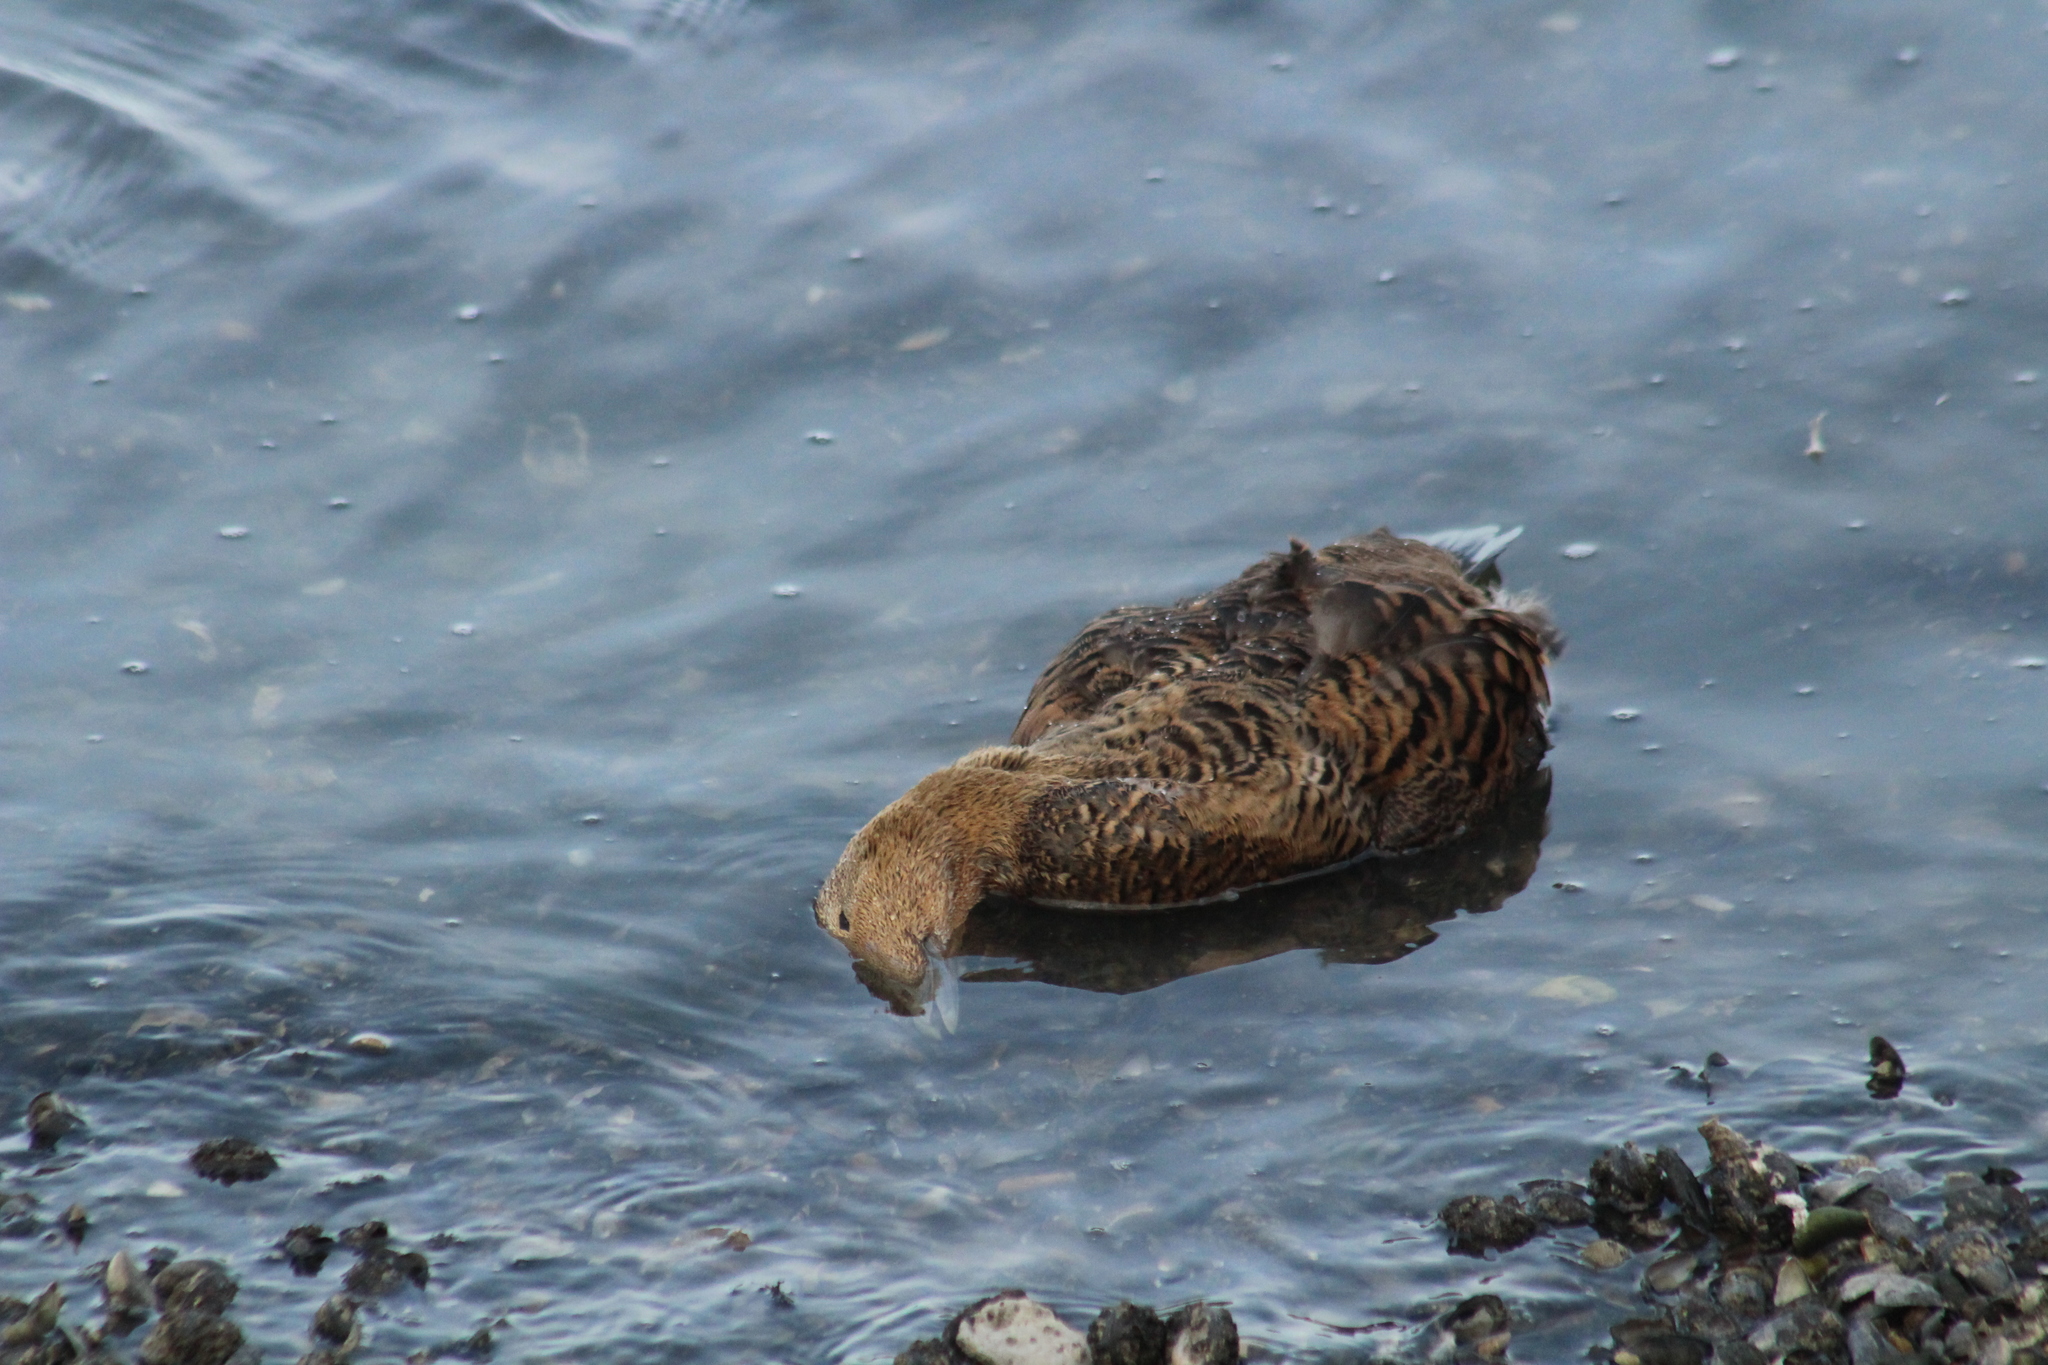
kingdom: Animalia
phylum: Chordata
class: Aves
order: Anseriformes
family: Anatidae
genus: Somateria
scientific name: Somateria mollissima
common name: Common eider
